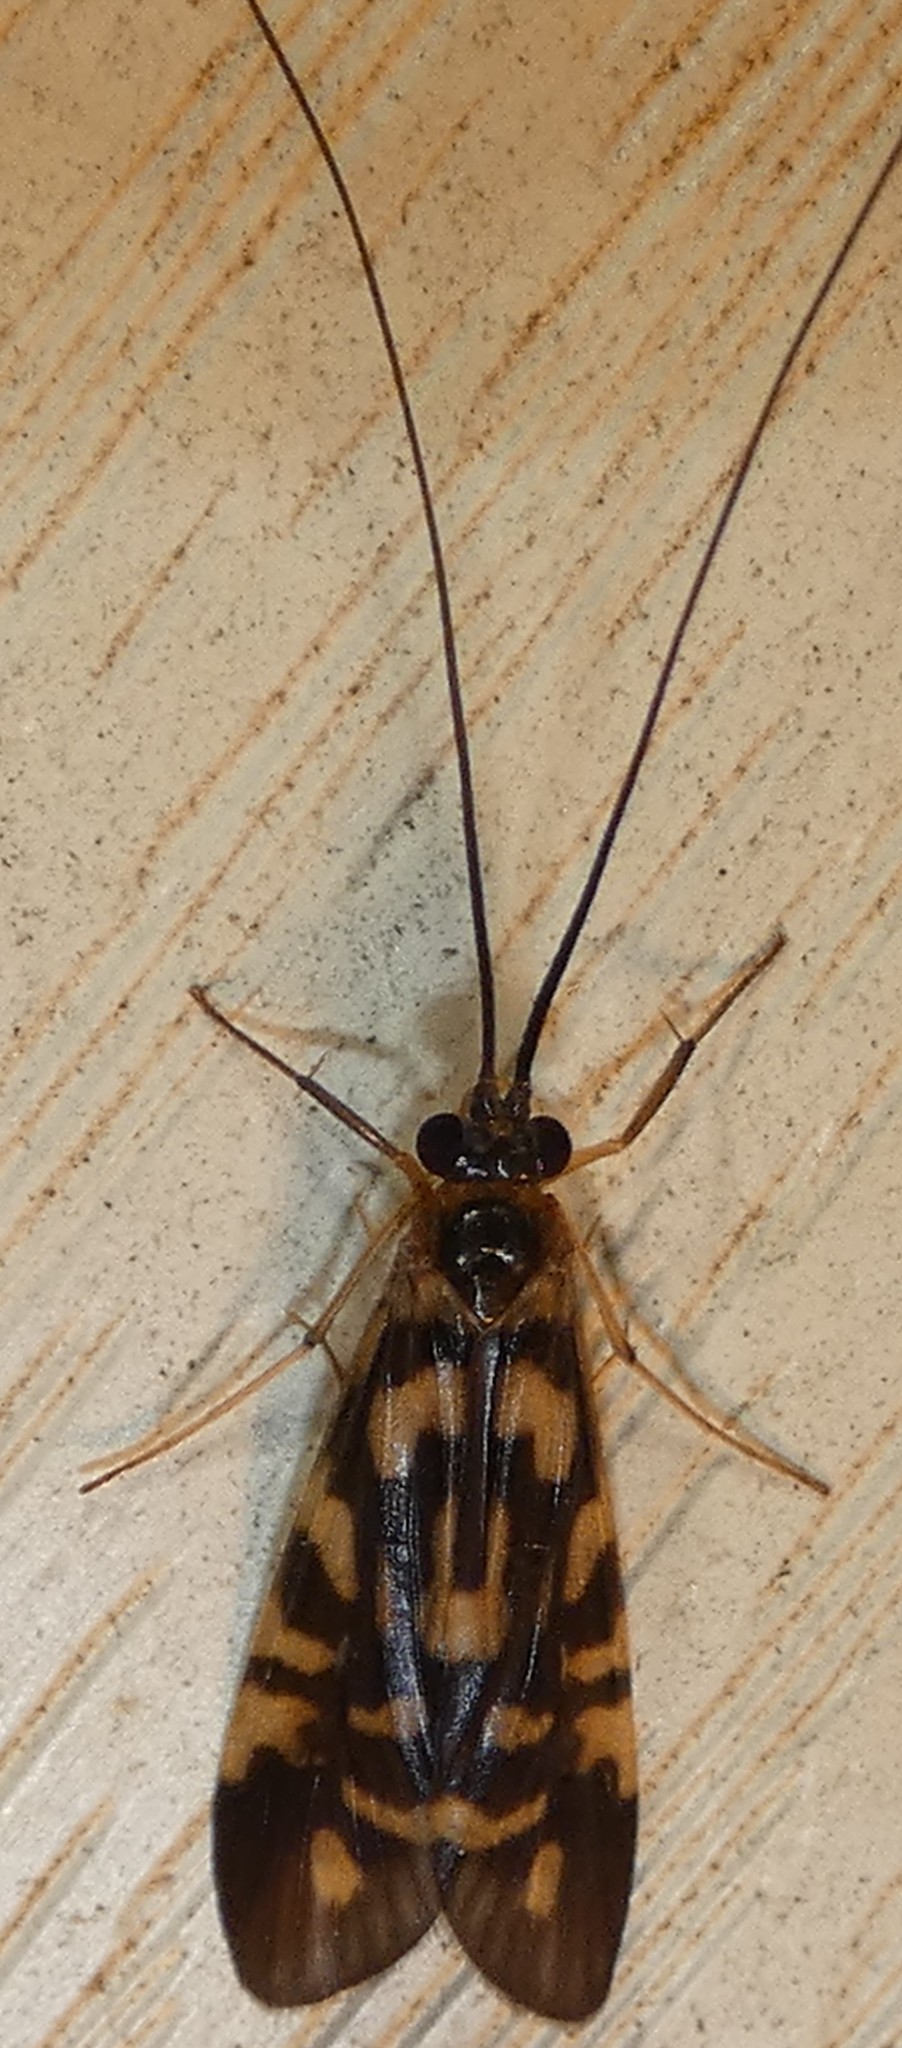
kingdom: Animalia
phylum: Arthropoda
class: Insecta
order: Trichoptera
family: Hydropsychidae
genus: Macrostemum
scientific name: Macrostemum carolina
